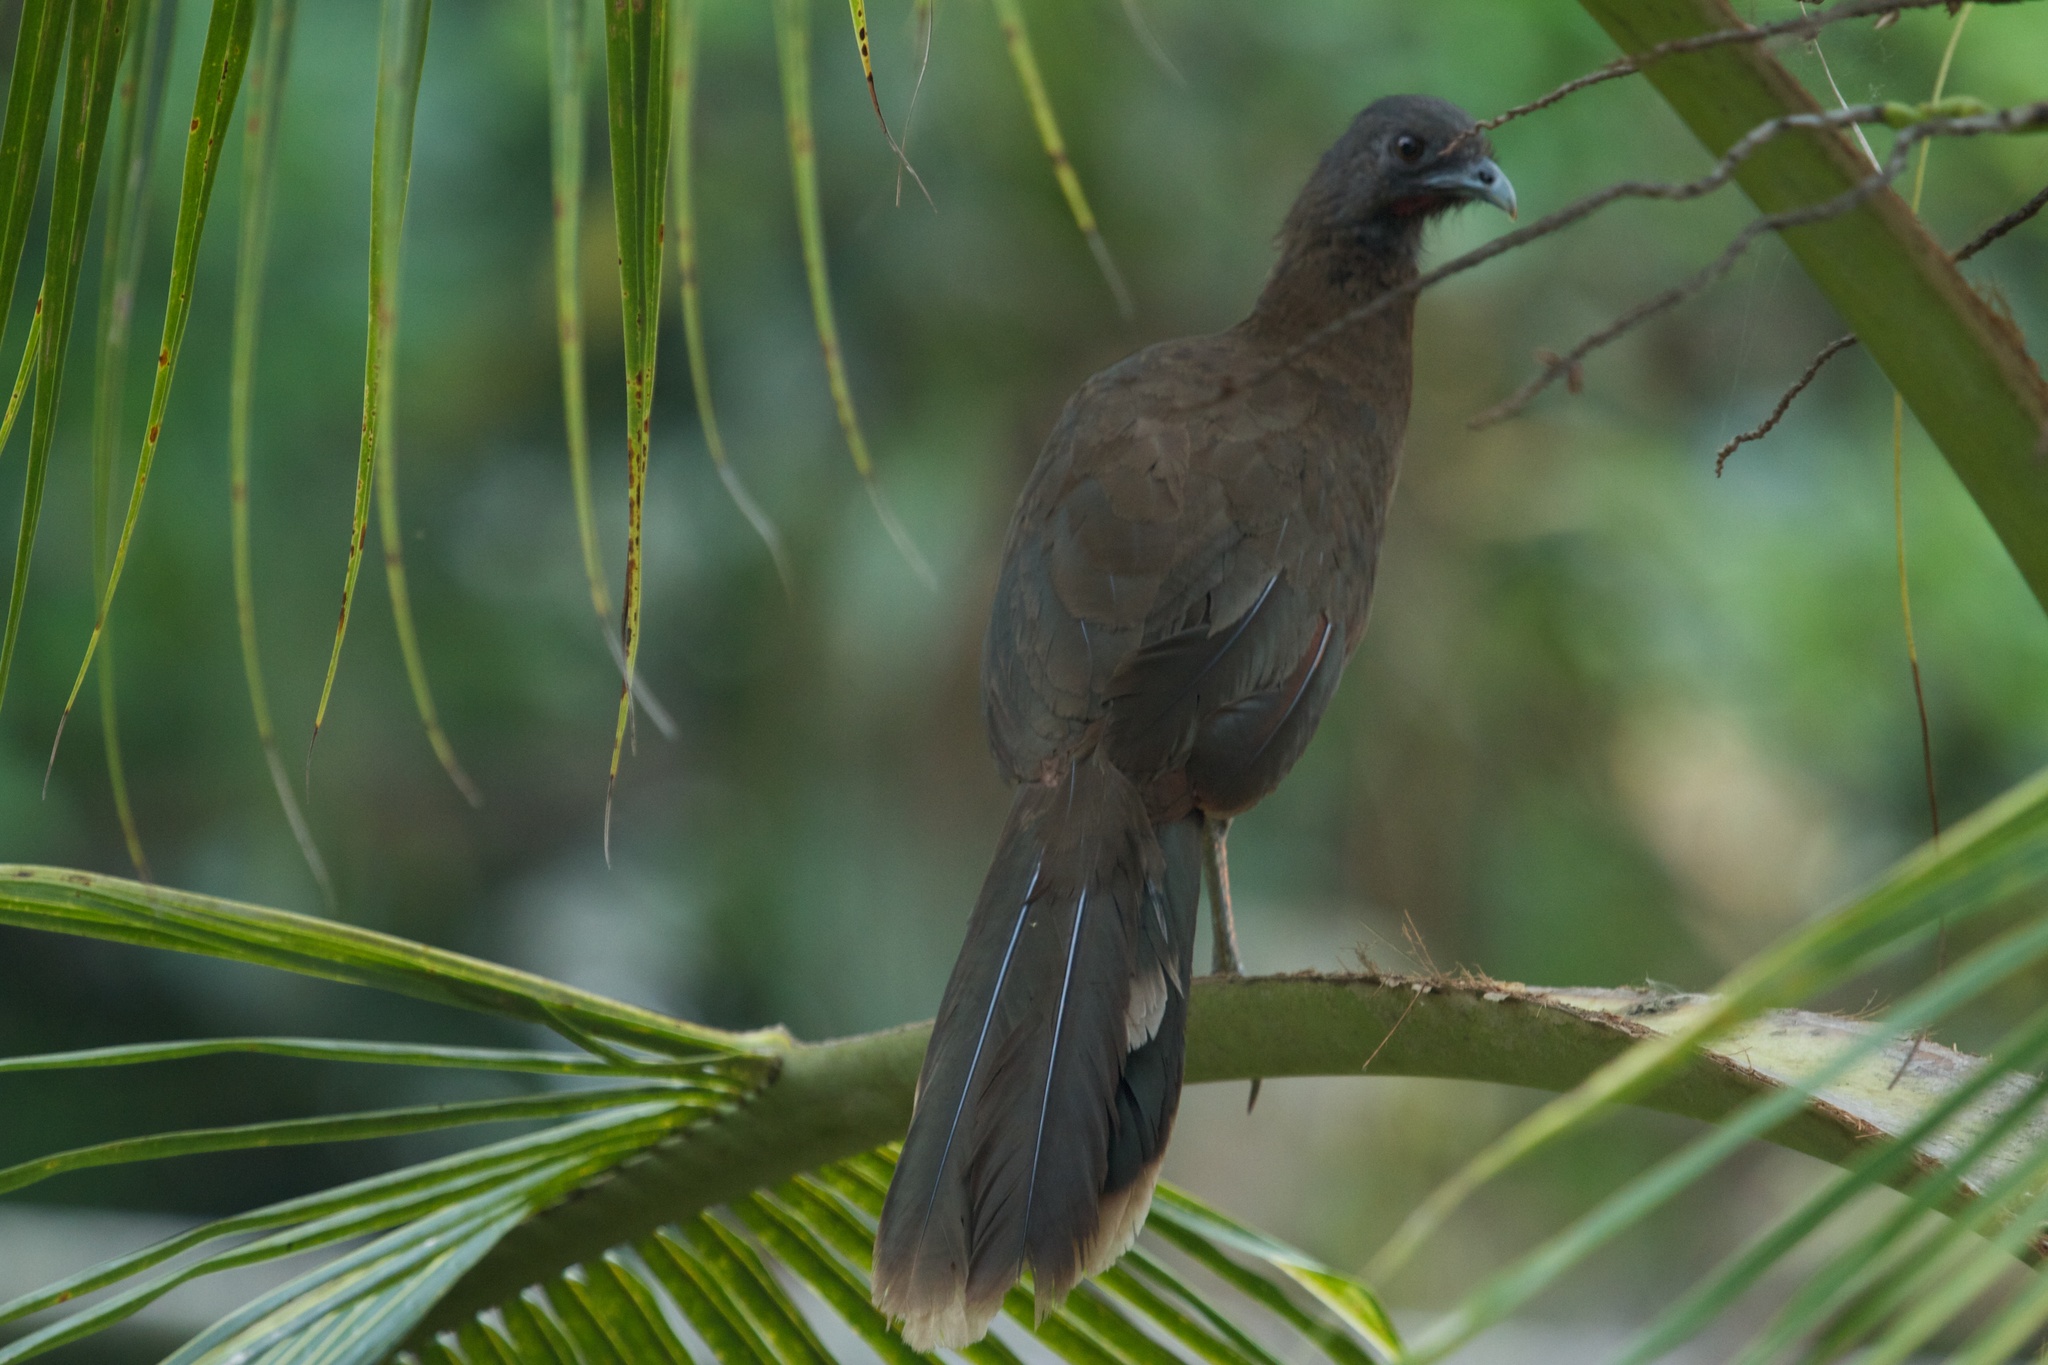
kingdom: Animalia
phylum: Chordata
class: Aves
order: Galliformes
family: Cracidae
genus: Ortalis
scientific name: Ortalis cinereiceps
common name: Grey-headed chachalaca
